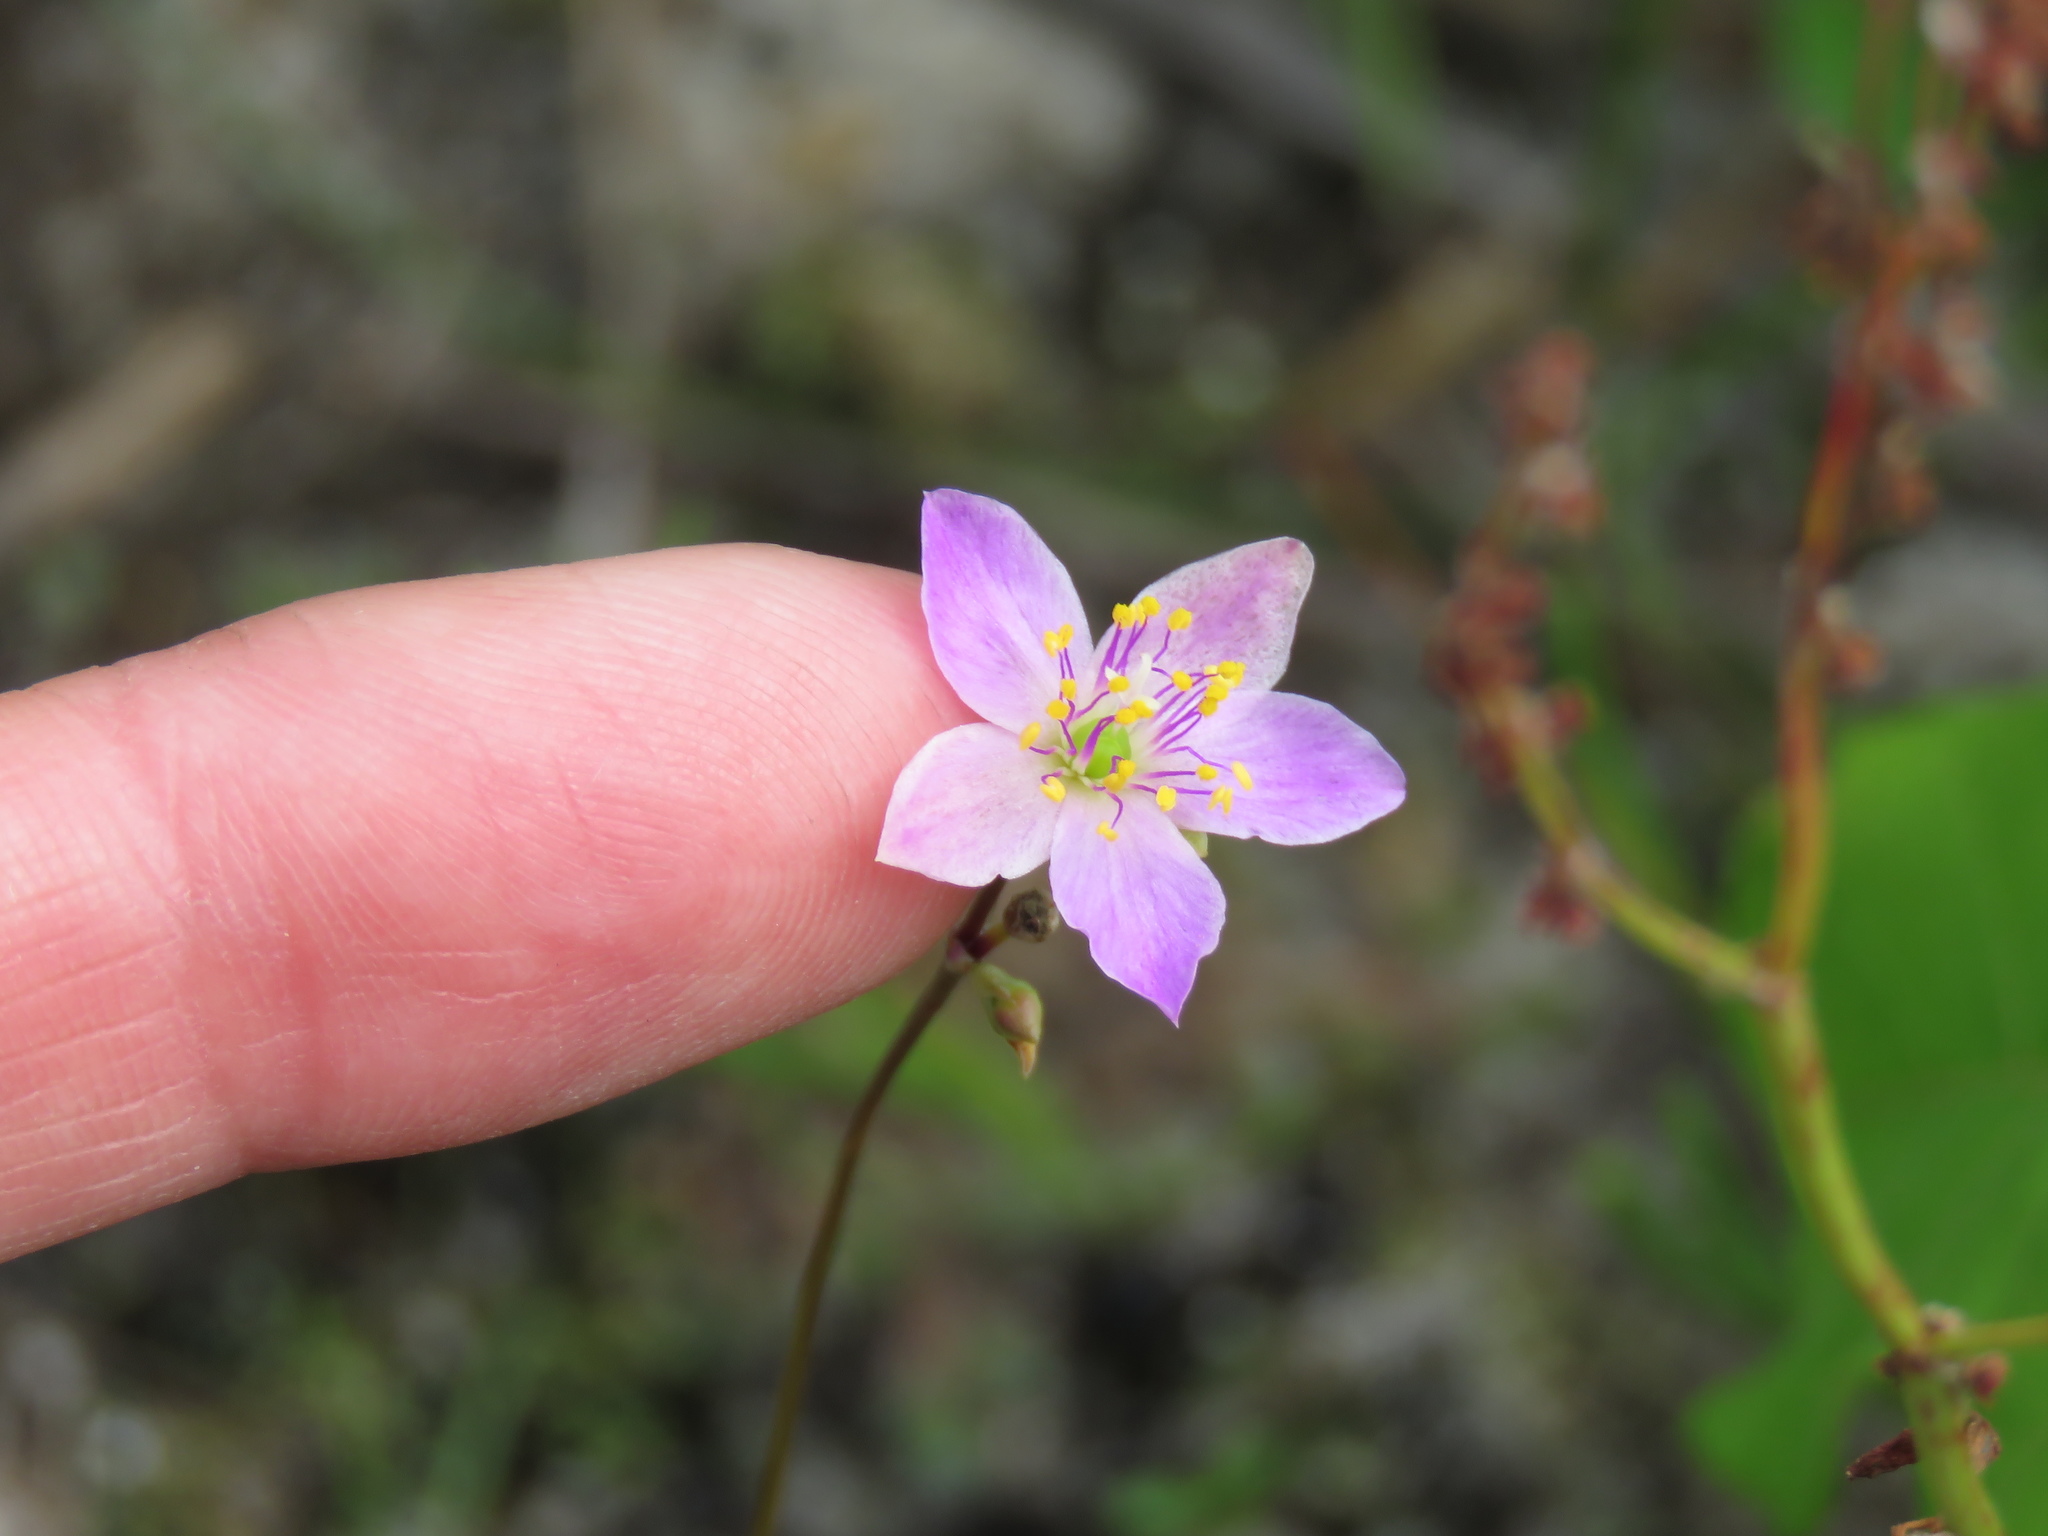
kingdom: Plantae
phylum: Tracheophyta
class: Magnoliopsida
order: Caryophyllales
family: Montiaceae
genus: Phemeranthus
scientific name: Phemeranthus rugospermus
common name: Prairie fameflower
